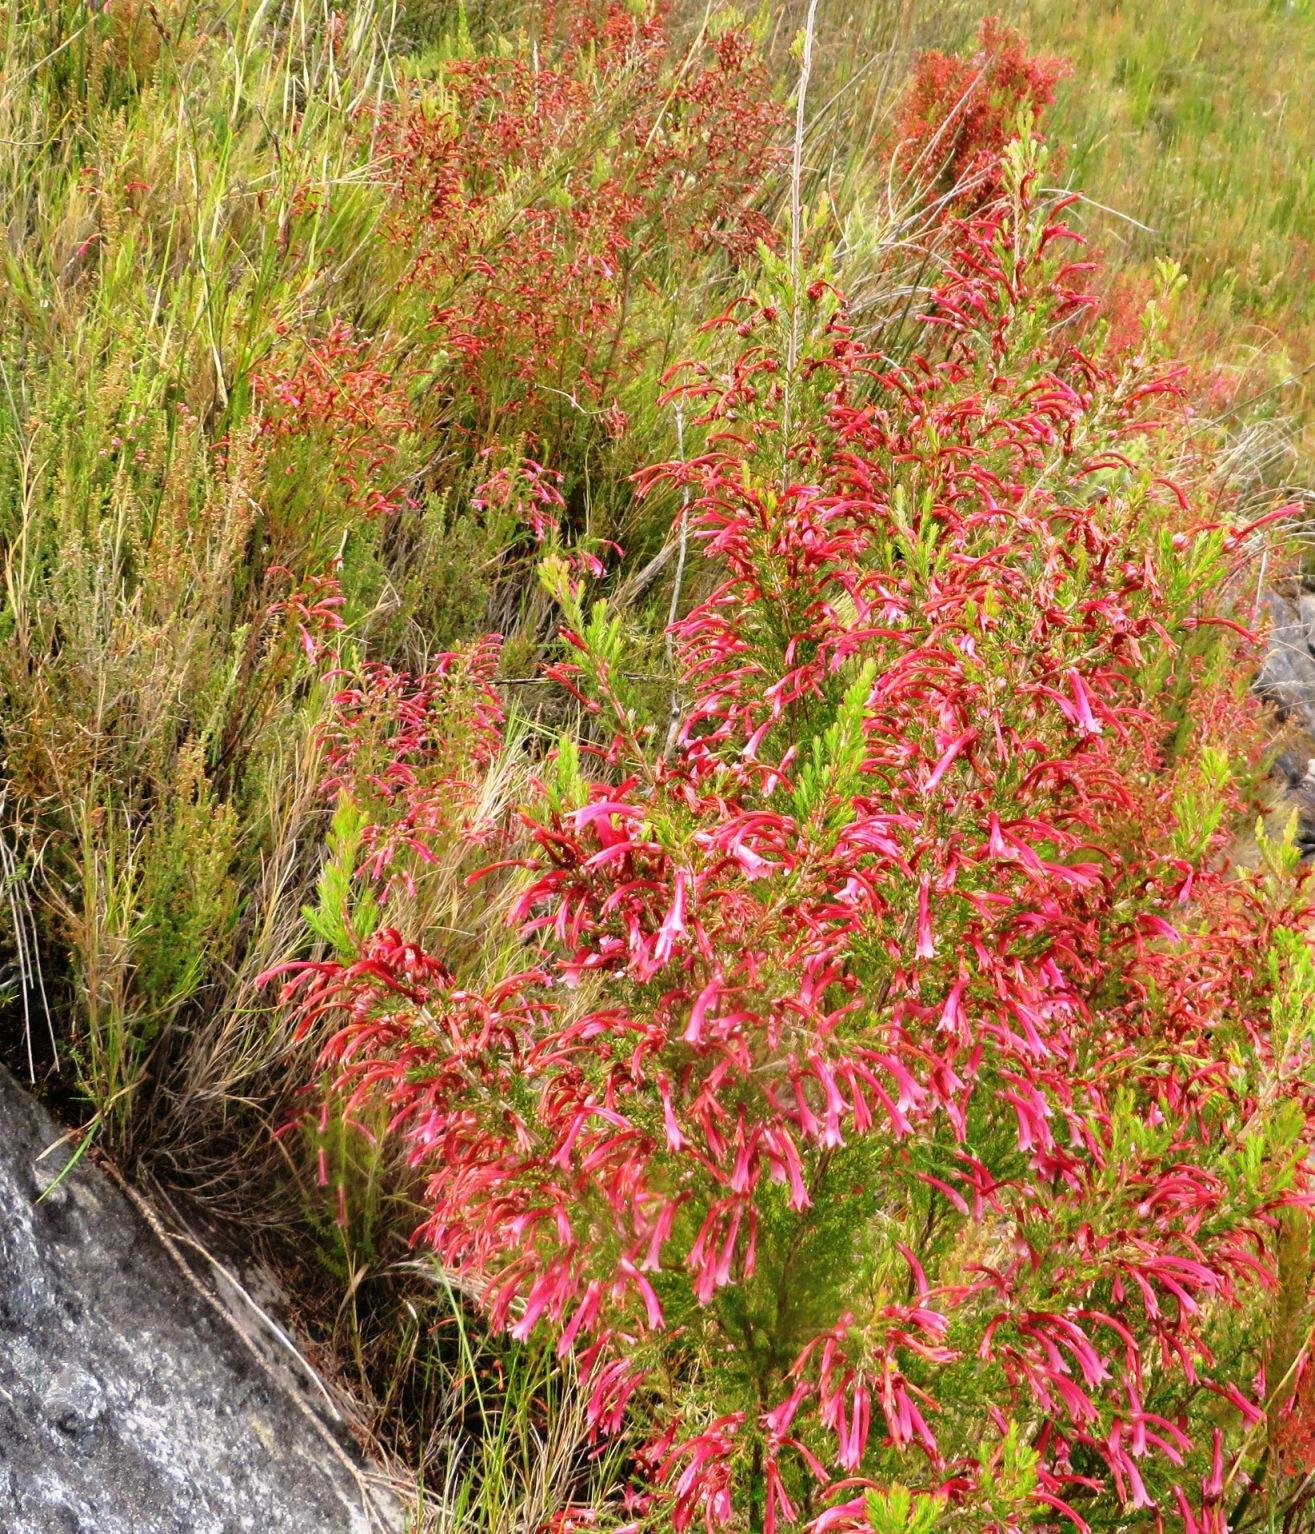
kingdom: Plantae
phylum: Tracheophyta
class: Magnoliopsida
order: Ericales
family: Ericaceae
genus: Erica
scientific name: Erica curviflora
